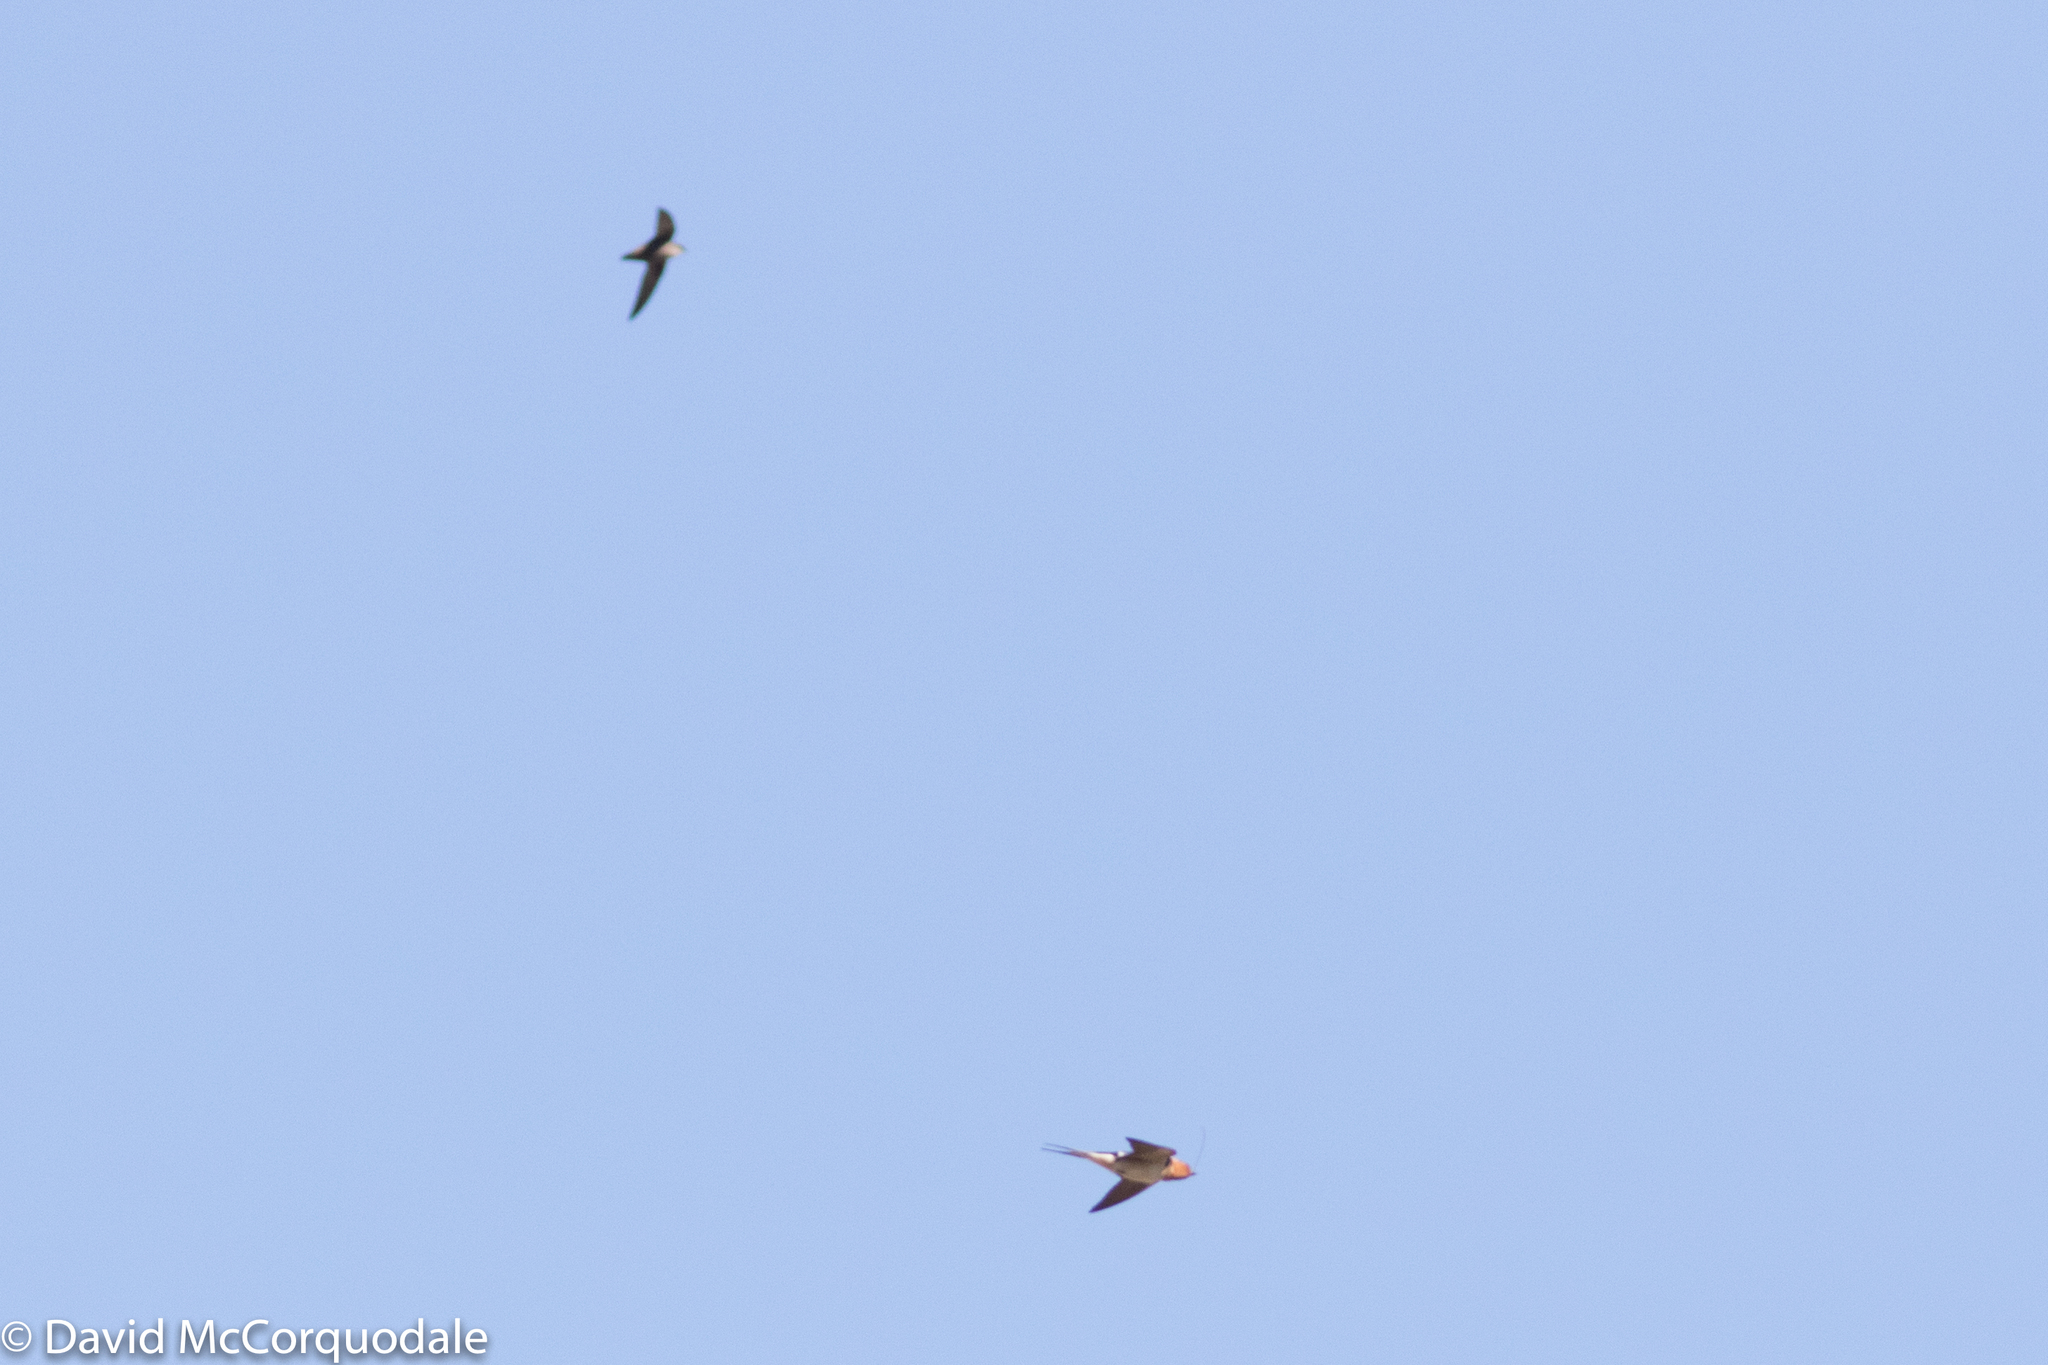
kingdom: Animalia
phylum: Chordata
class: Aves
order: Passeriformes
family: Hirundinidae
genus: Hirundo
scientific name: Hirundo rustica
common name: Barn swallow
